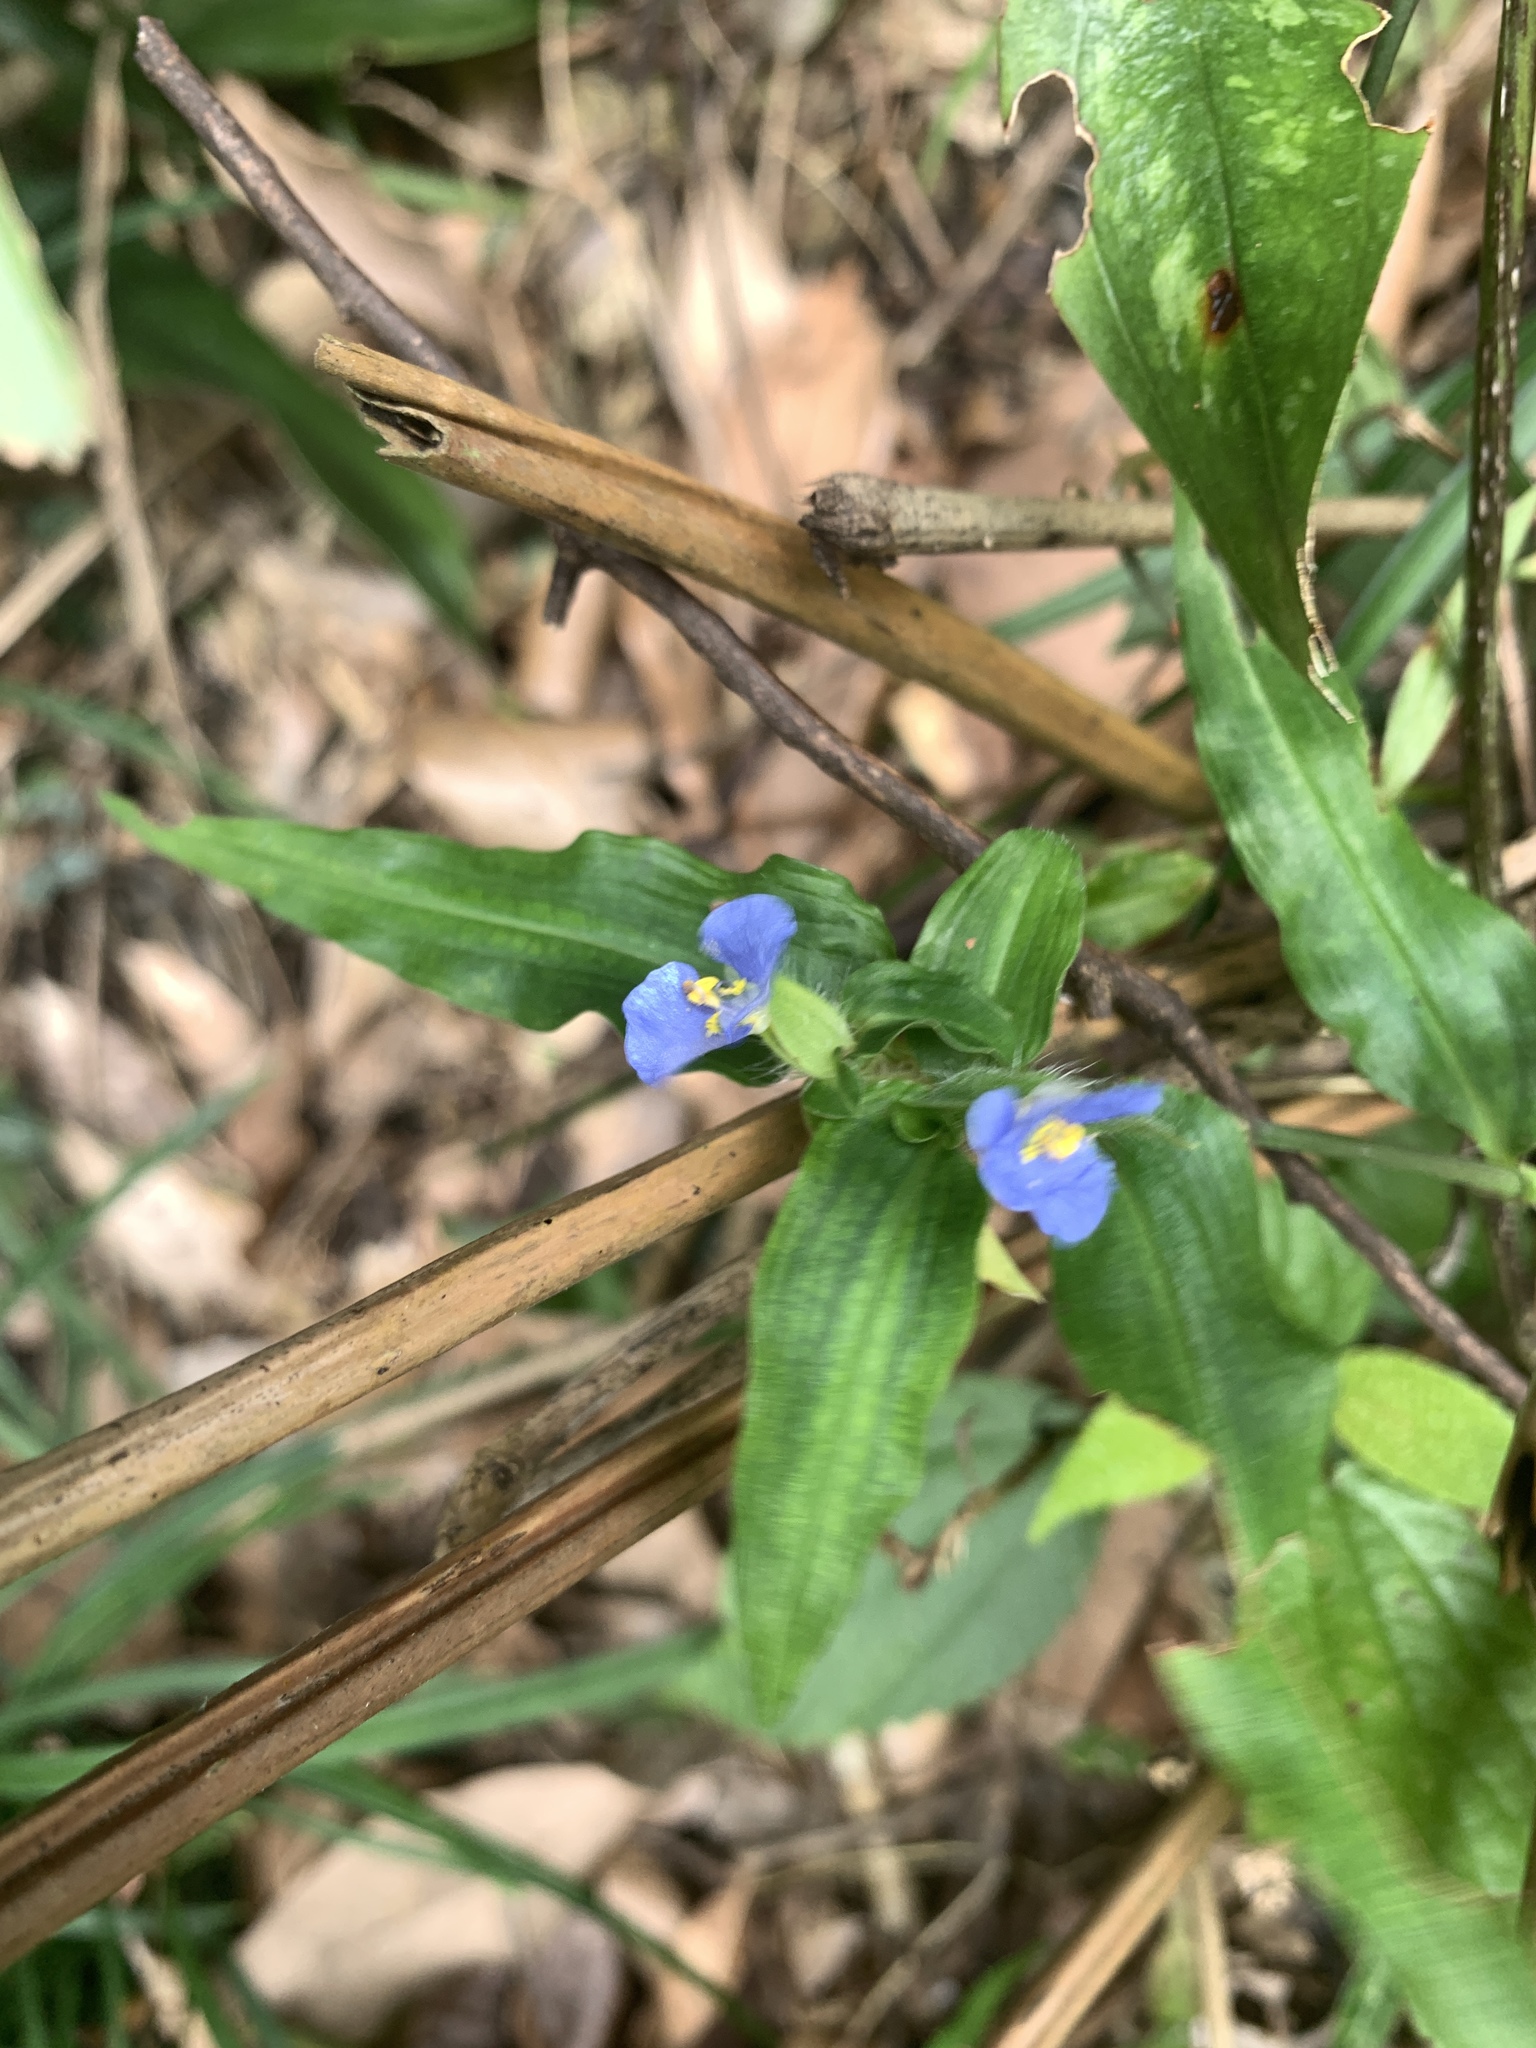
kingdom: Plantae
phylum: Tracheophyta
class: Liliopsida
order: Commelinales
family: Commelinaceae
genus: Commelina
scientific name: Commelina auriculata
